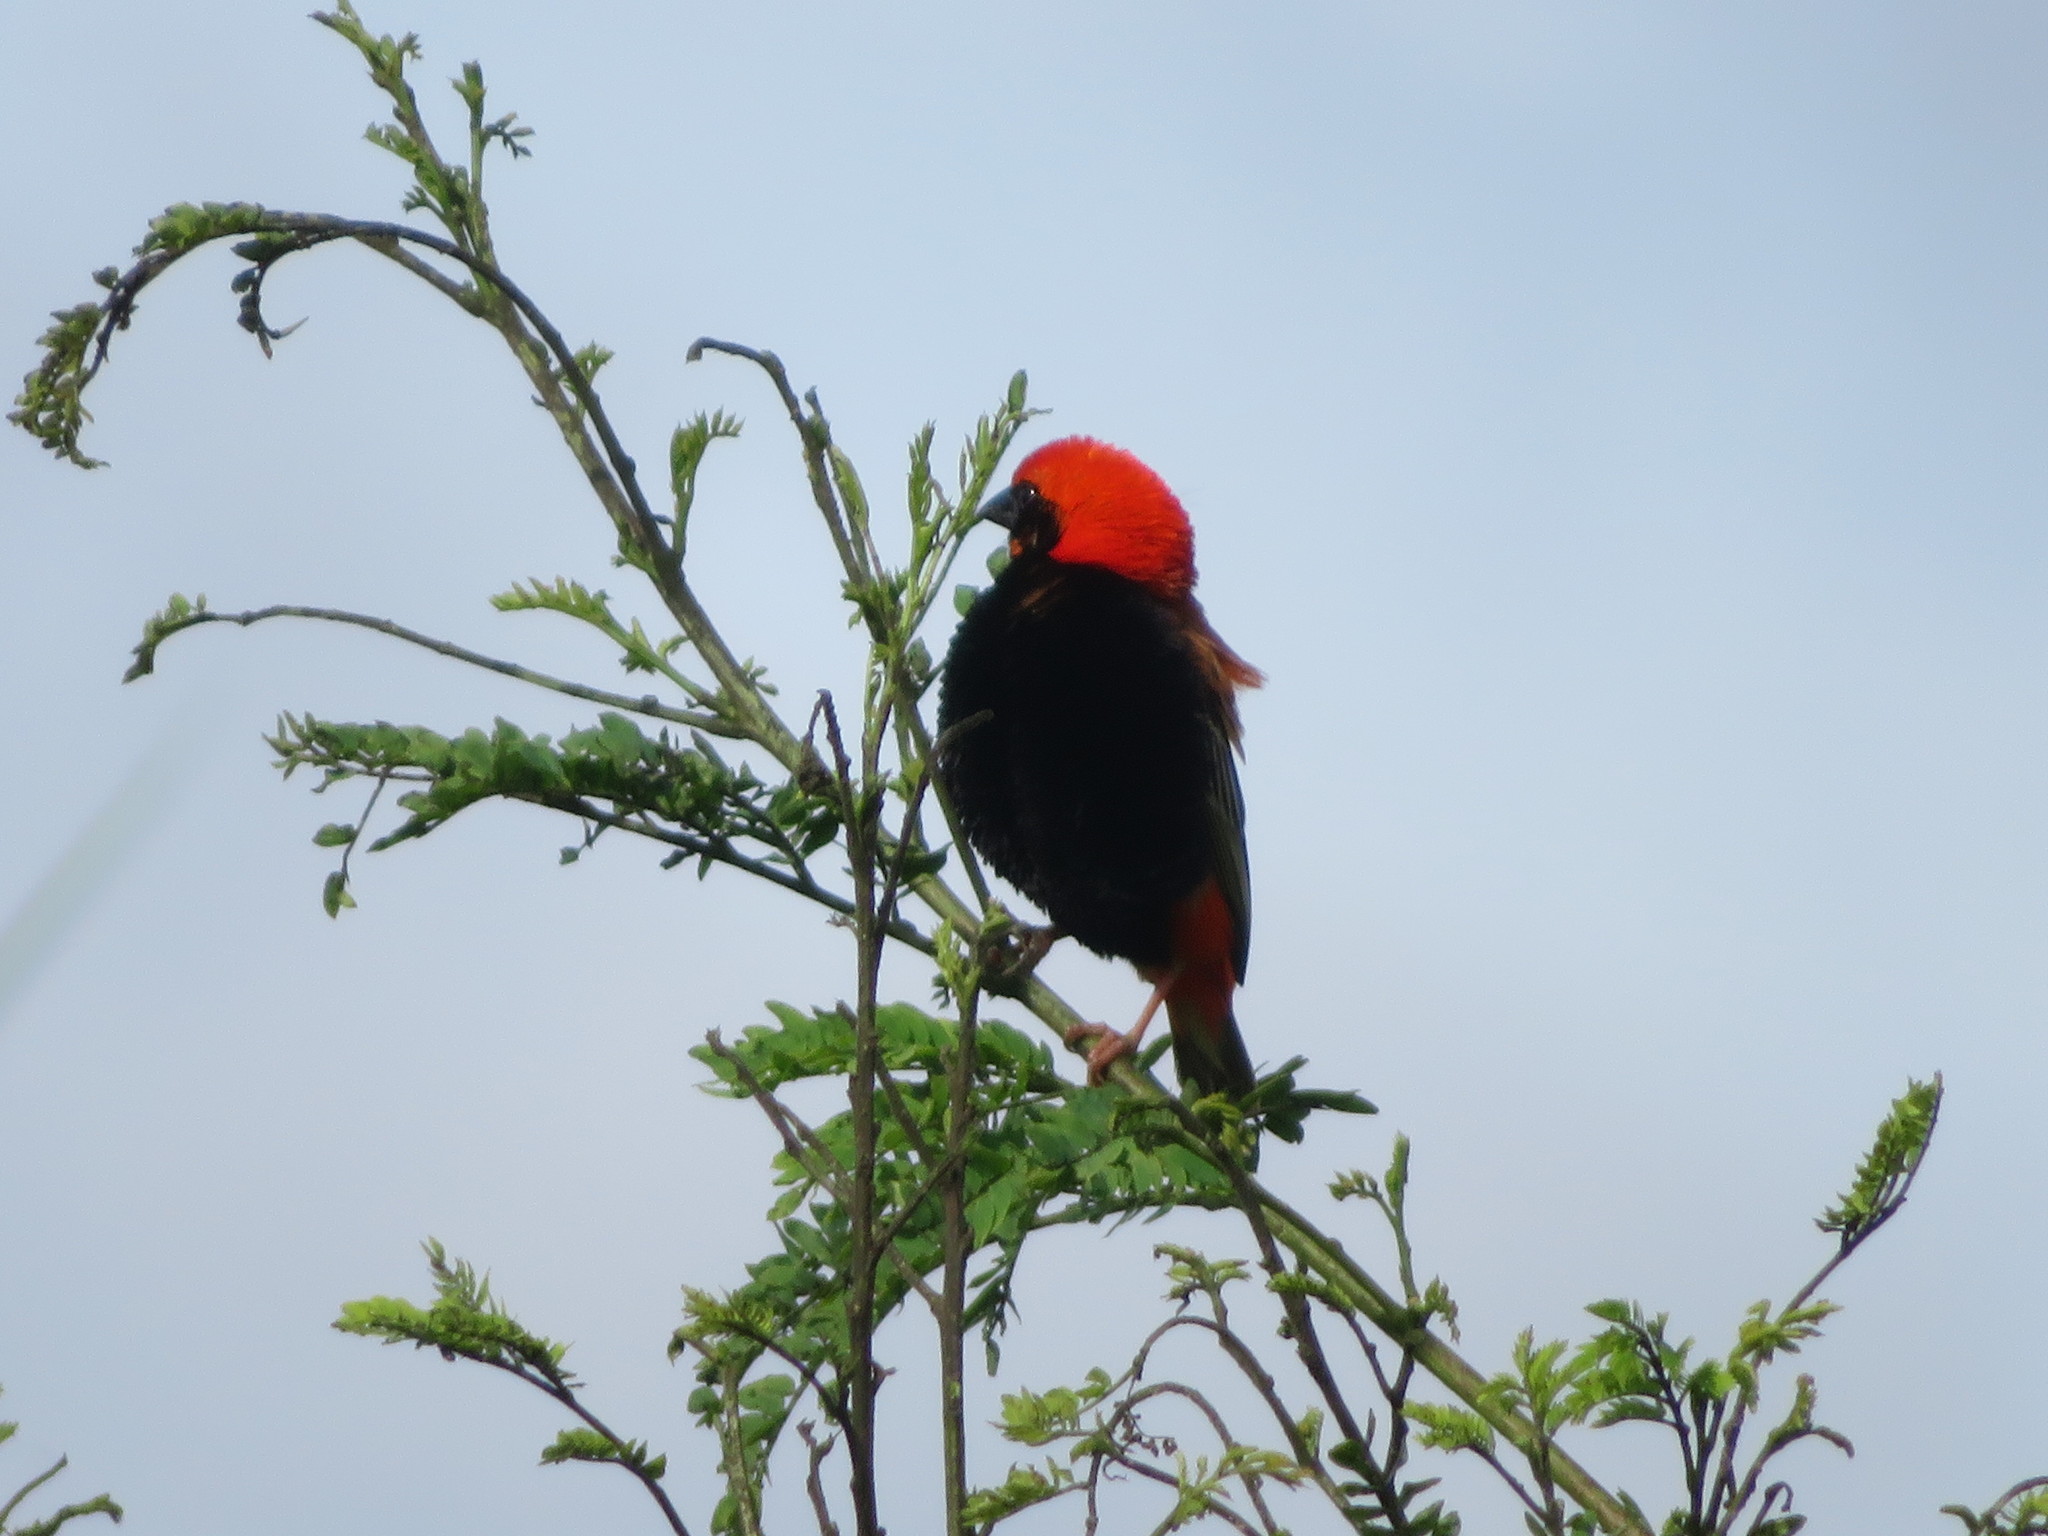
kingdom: Animalia
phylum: Chordata
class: Aves
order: Passeriformes
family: Ploceidae
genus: Euplectes
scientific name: Euplectes nigroventris
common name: Zanzibar red bishop
